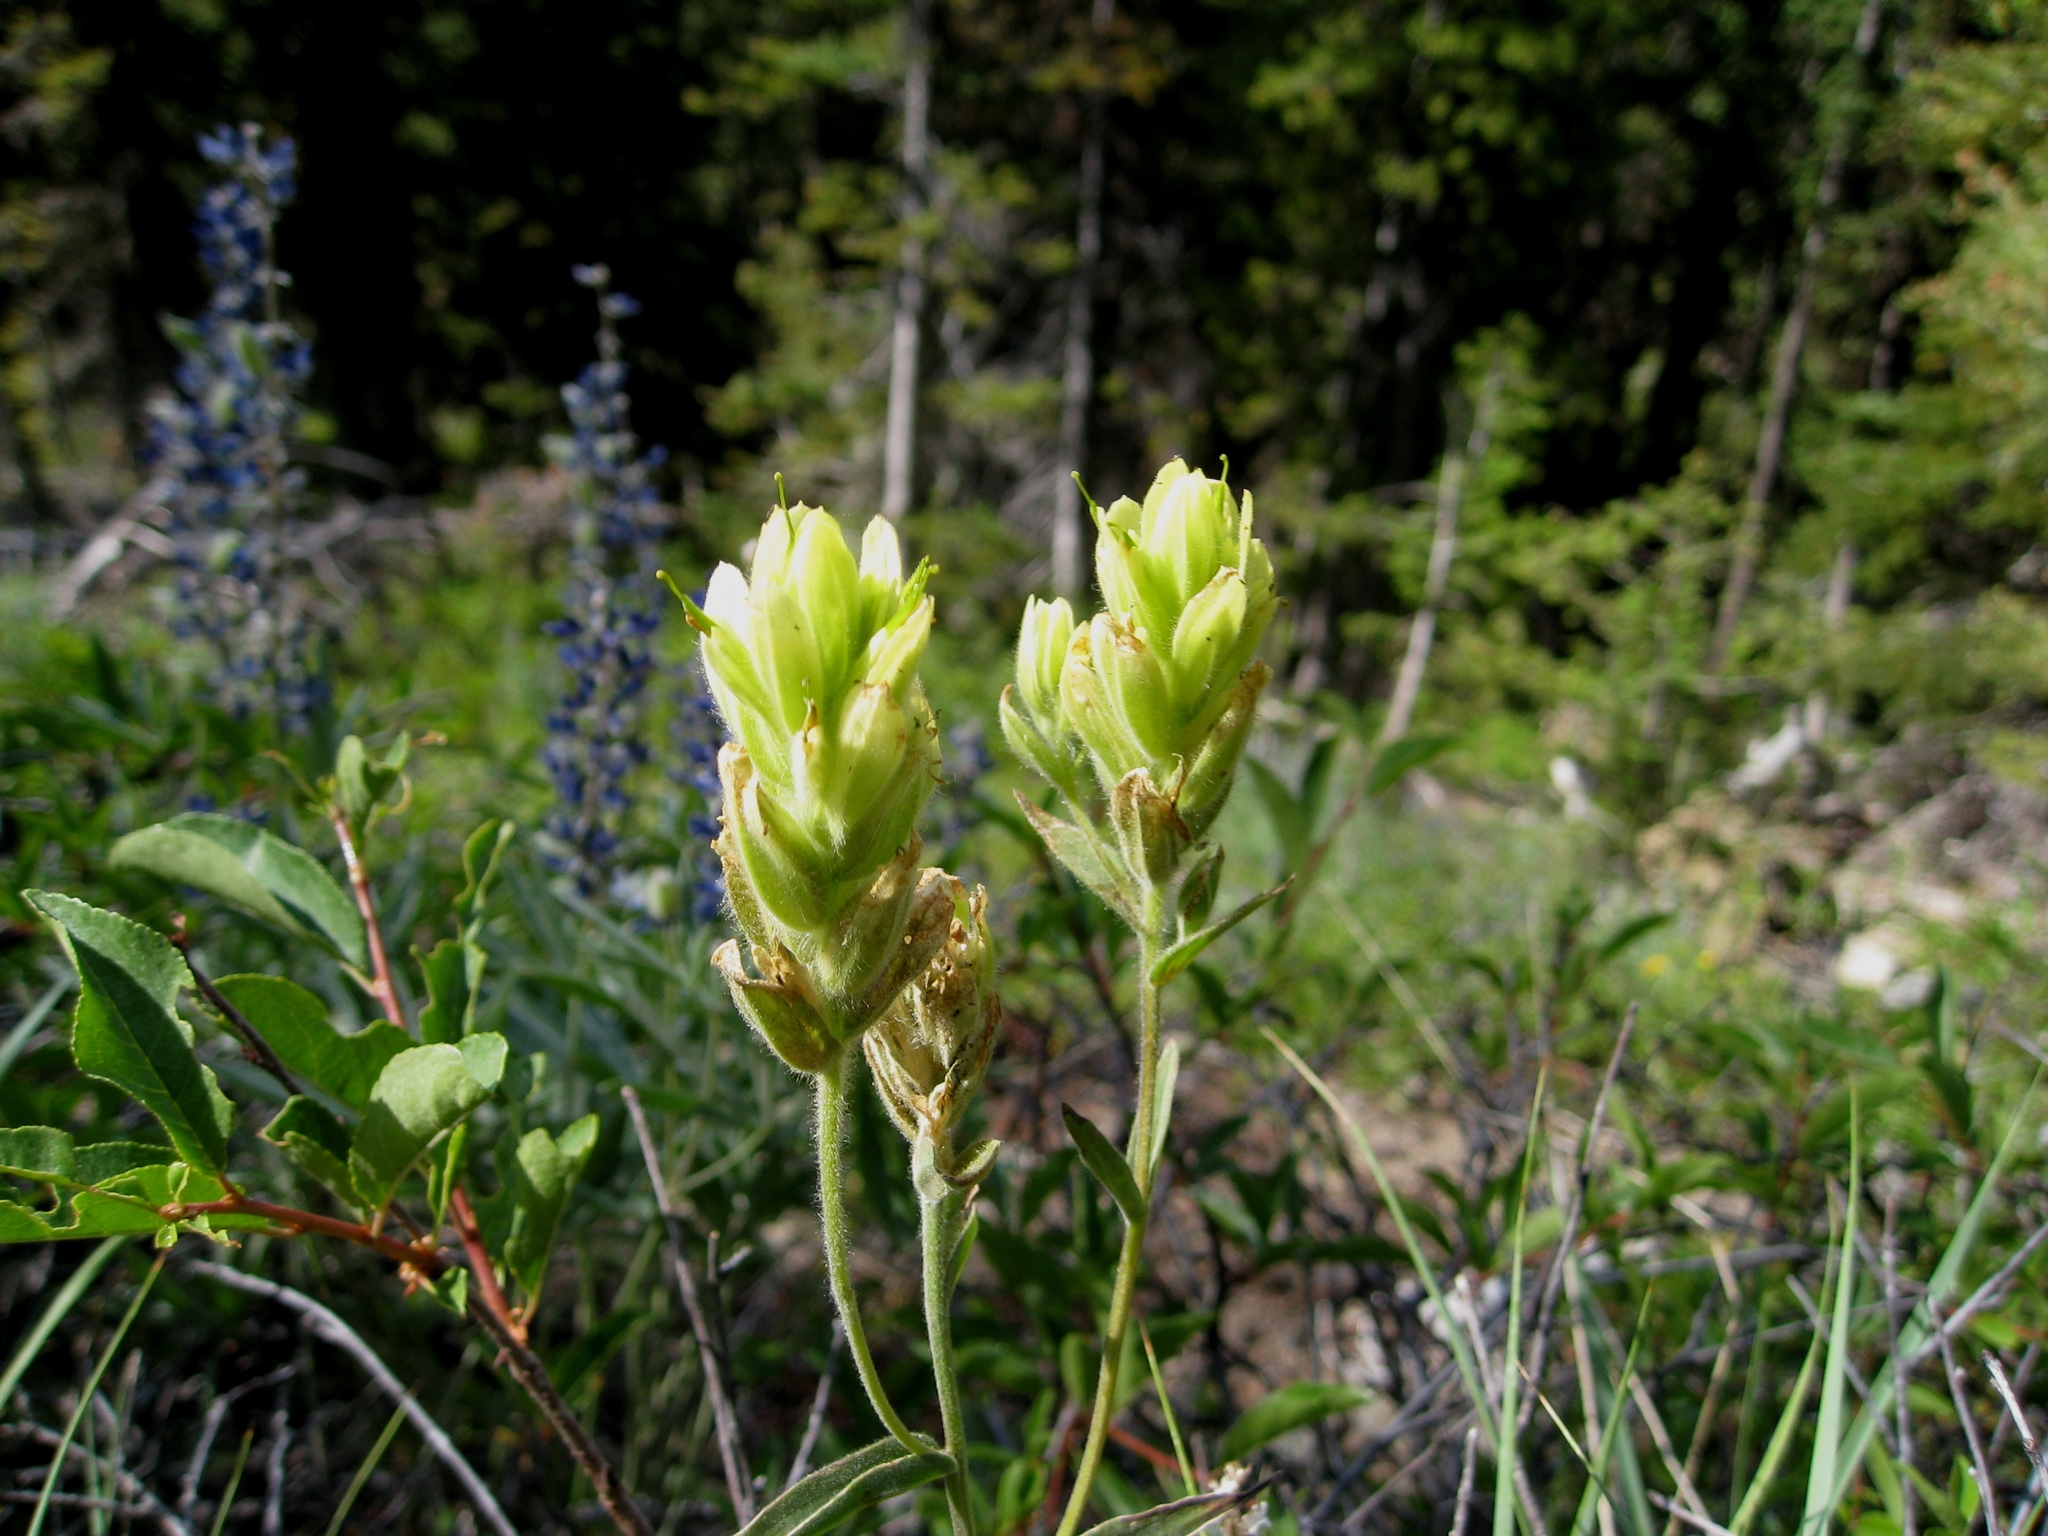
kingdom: Plantae
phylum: Tracheophyta
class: Magnoliopsida
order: Lamiales
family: Orobanchaceae
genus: Castilleja
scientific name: Castilleja elmeri
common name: Elmer's paintbrush
